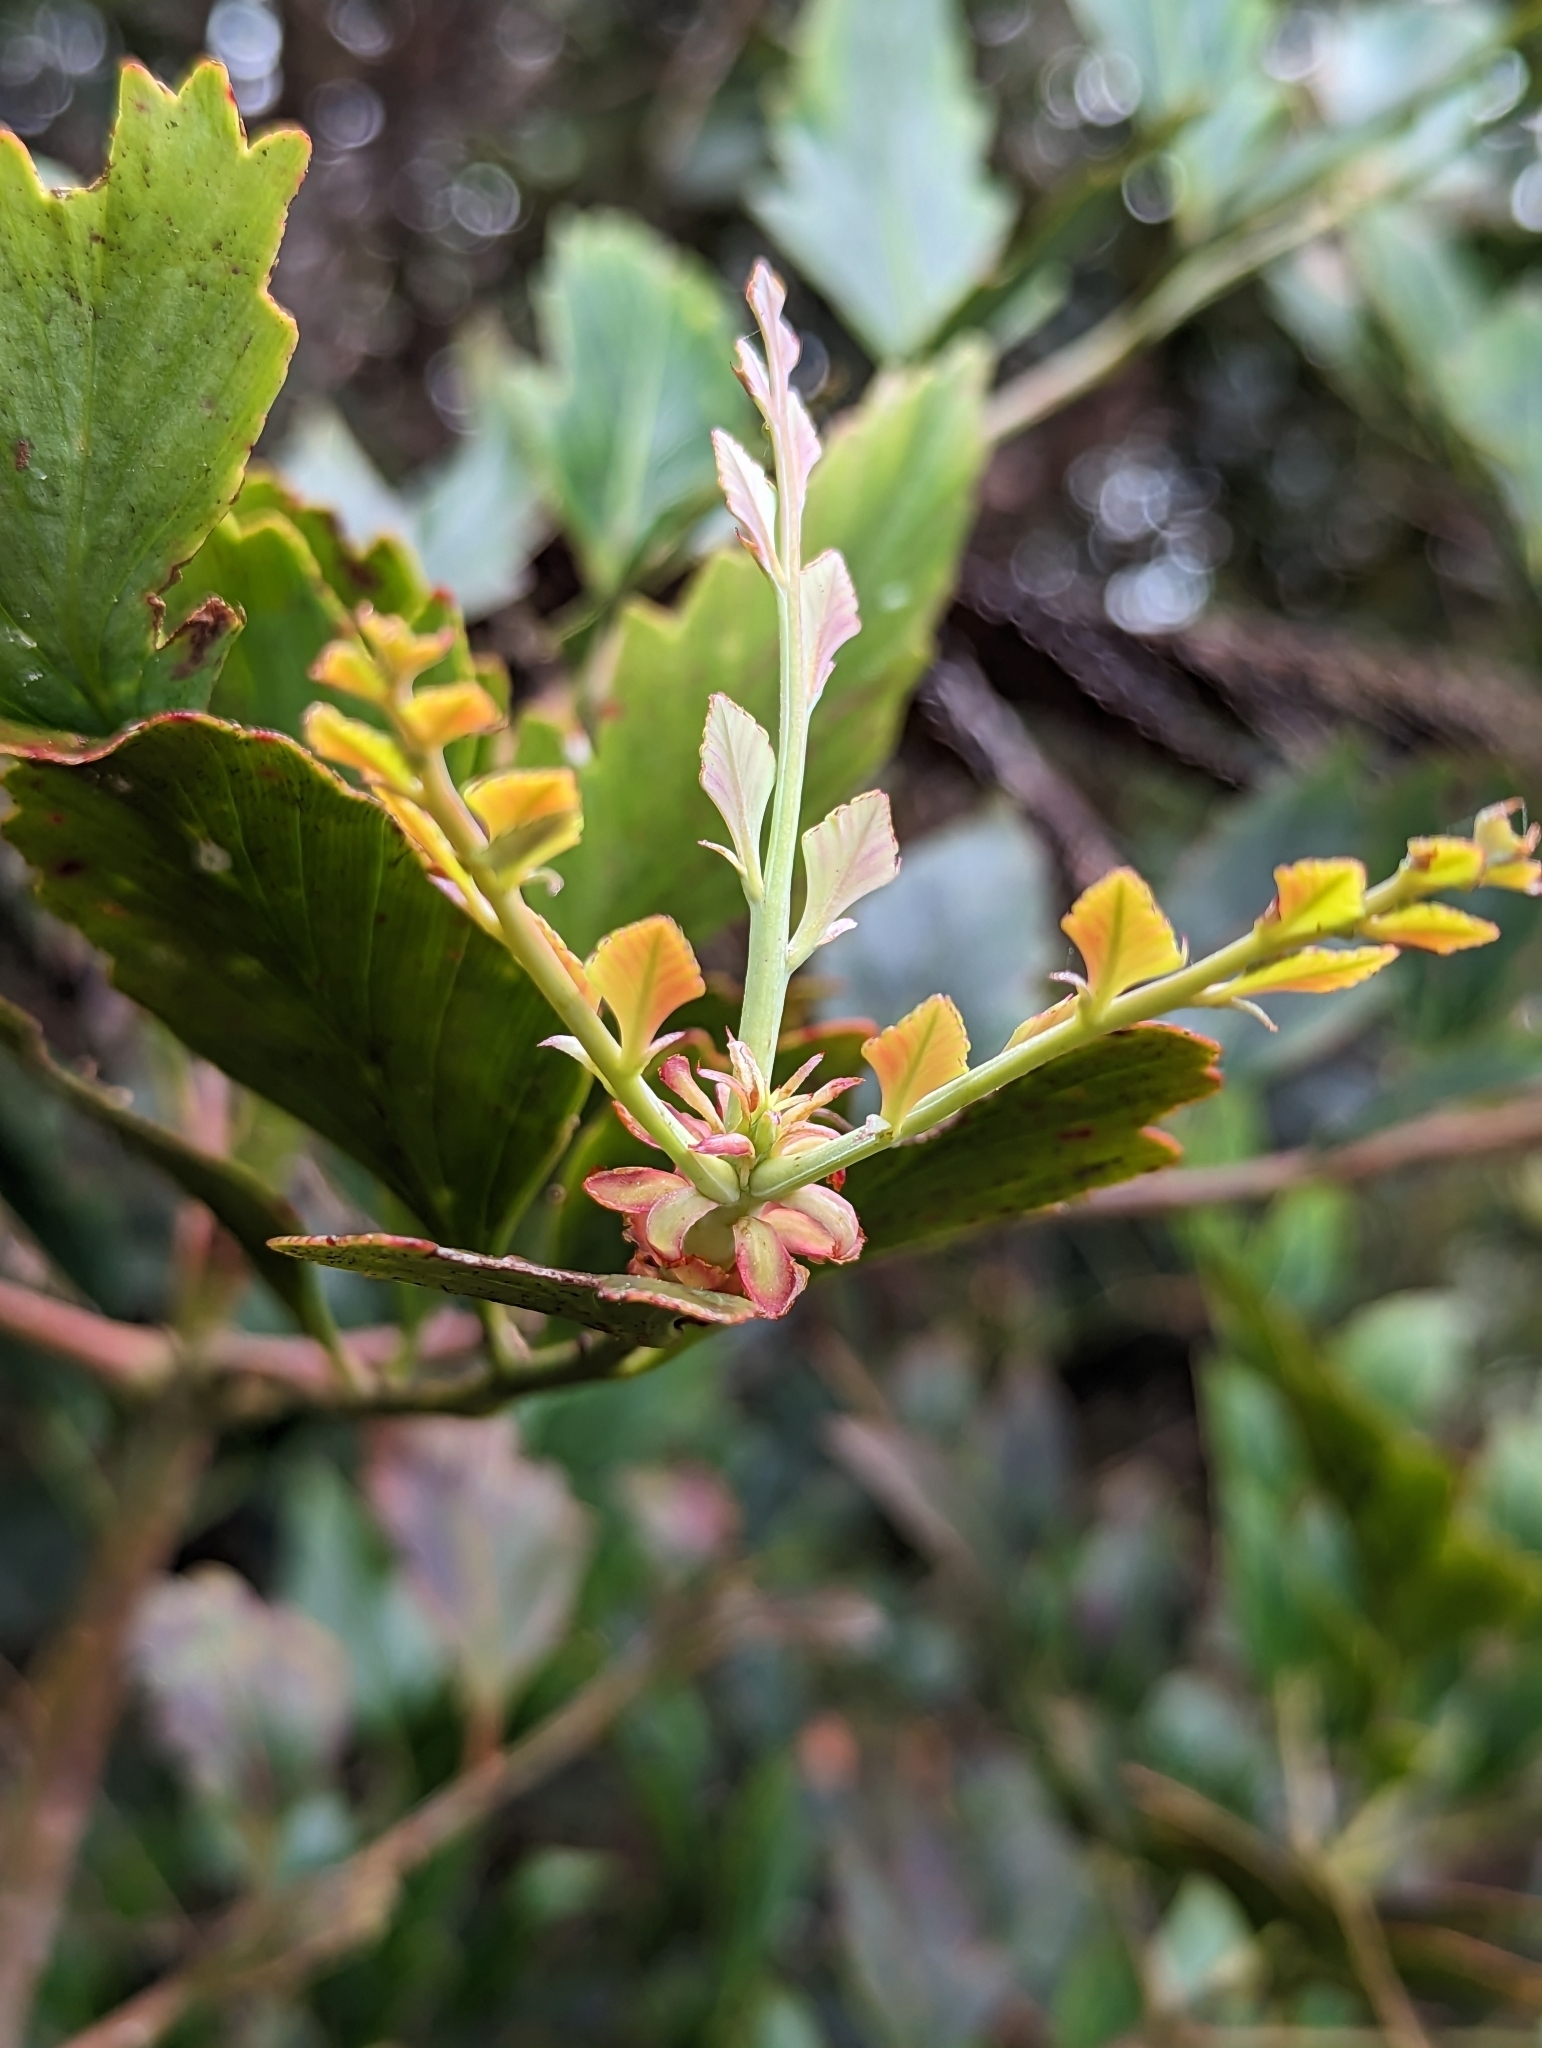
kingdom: Plantae
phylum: Tracheophyta
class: Pinopsida
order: Pinales
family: Phyllocladaceae
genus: Phyllocladus
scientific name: Phyllocladus hypophyllus
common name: Celery pine
